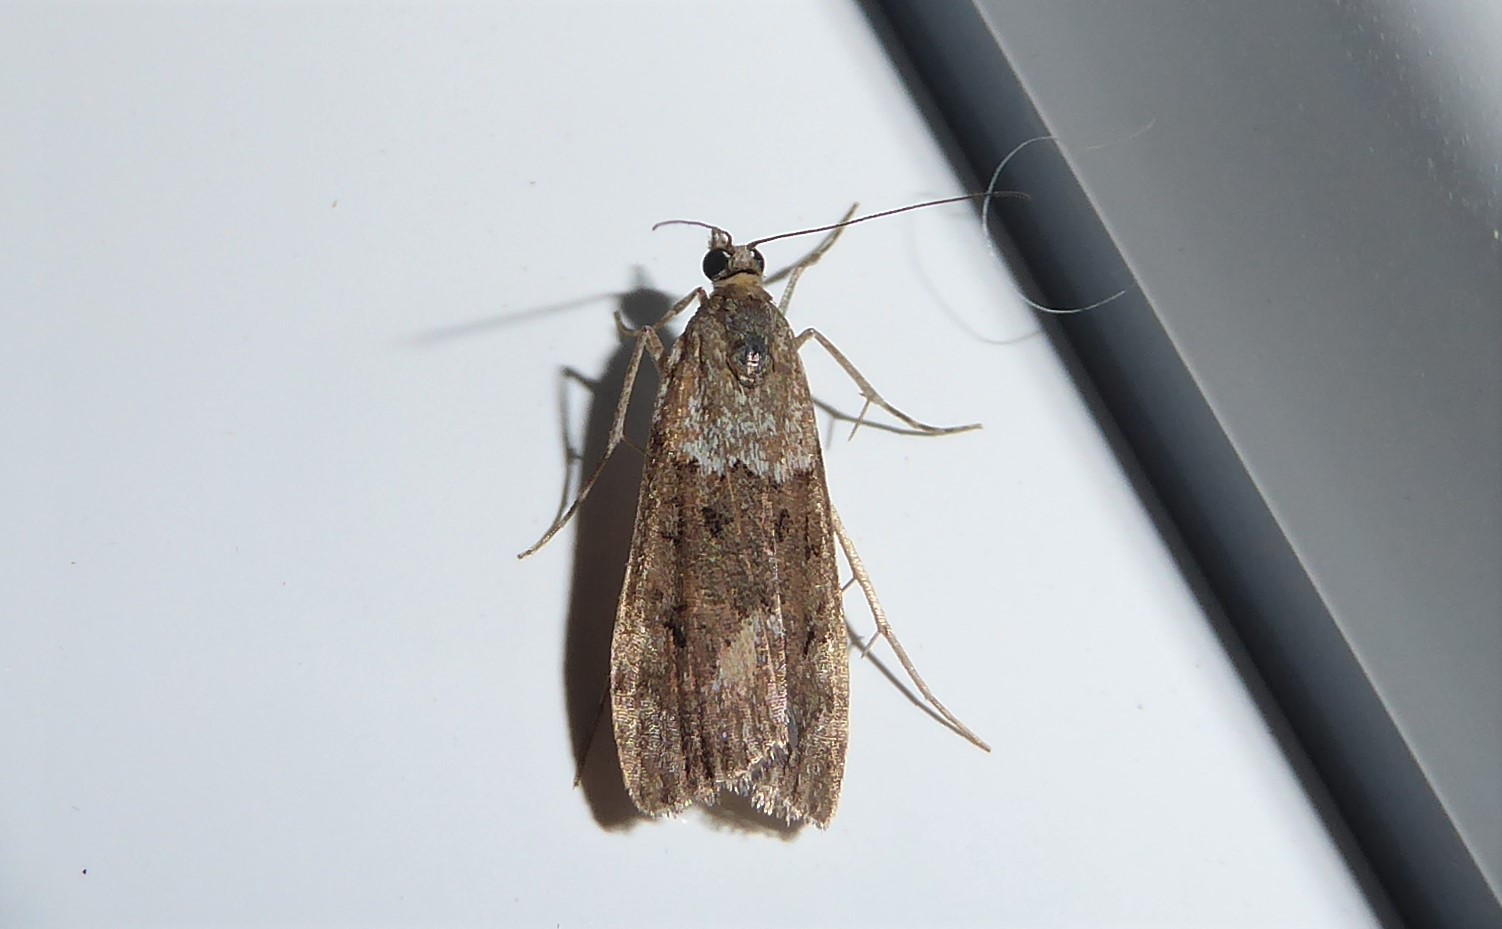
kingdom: Animalia
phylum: Arthropoda
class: Insecta
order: Lepidoptera
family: Crambidae
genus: Eudonia
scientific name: Eudonia submarginalis
